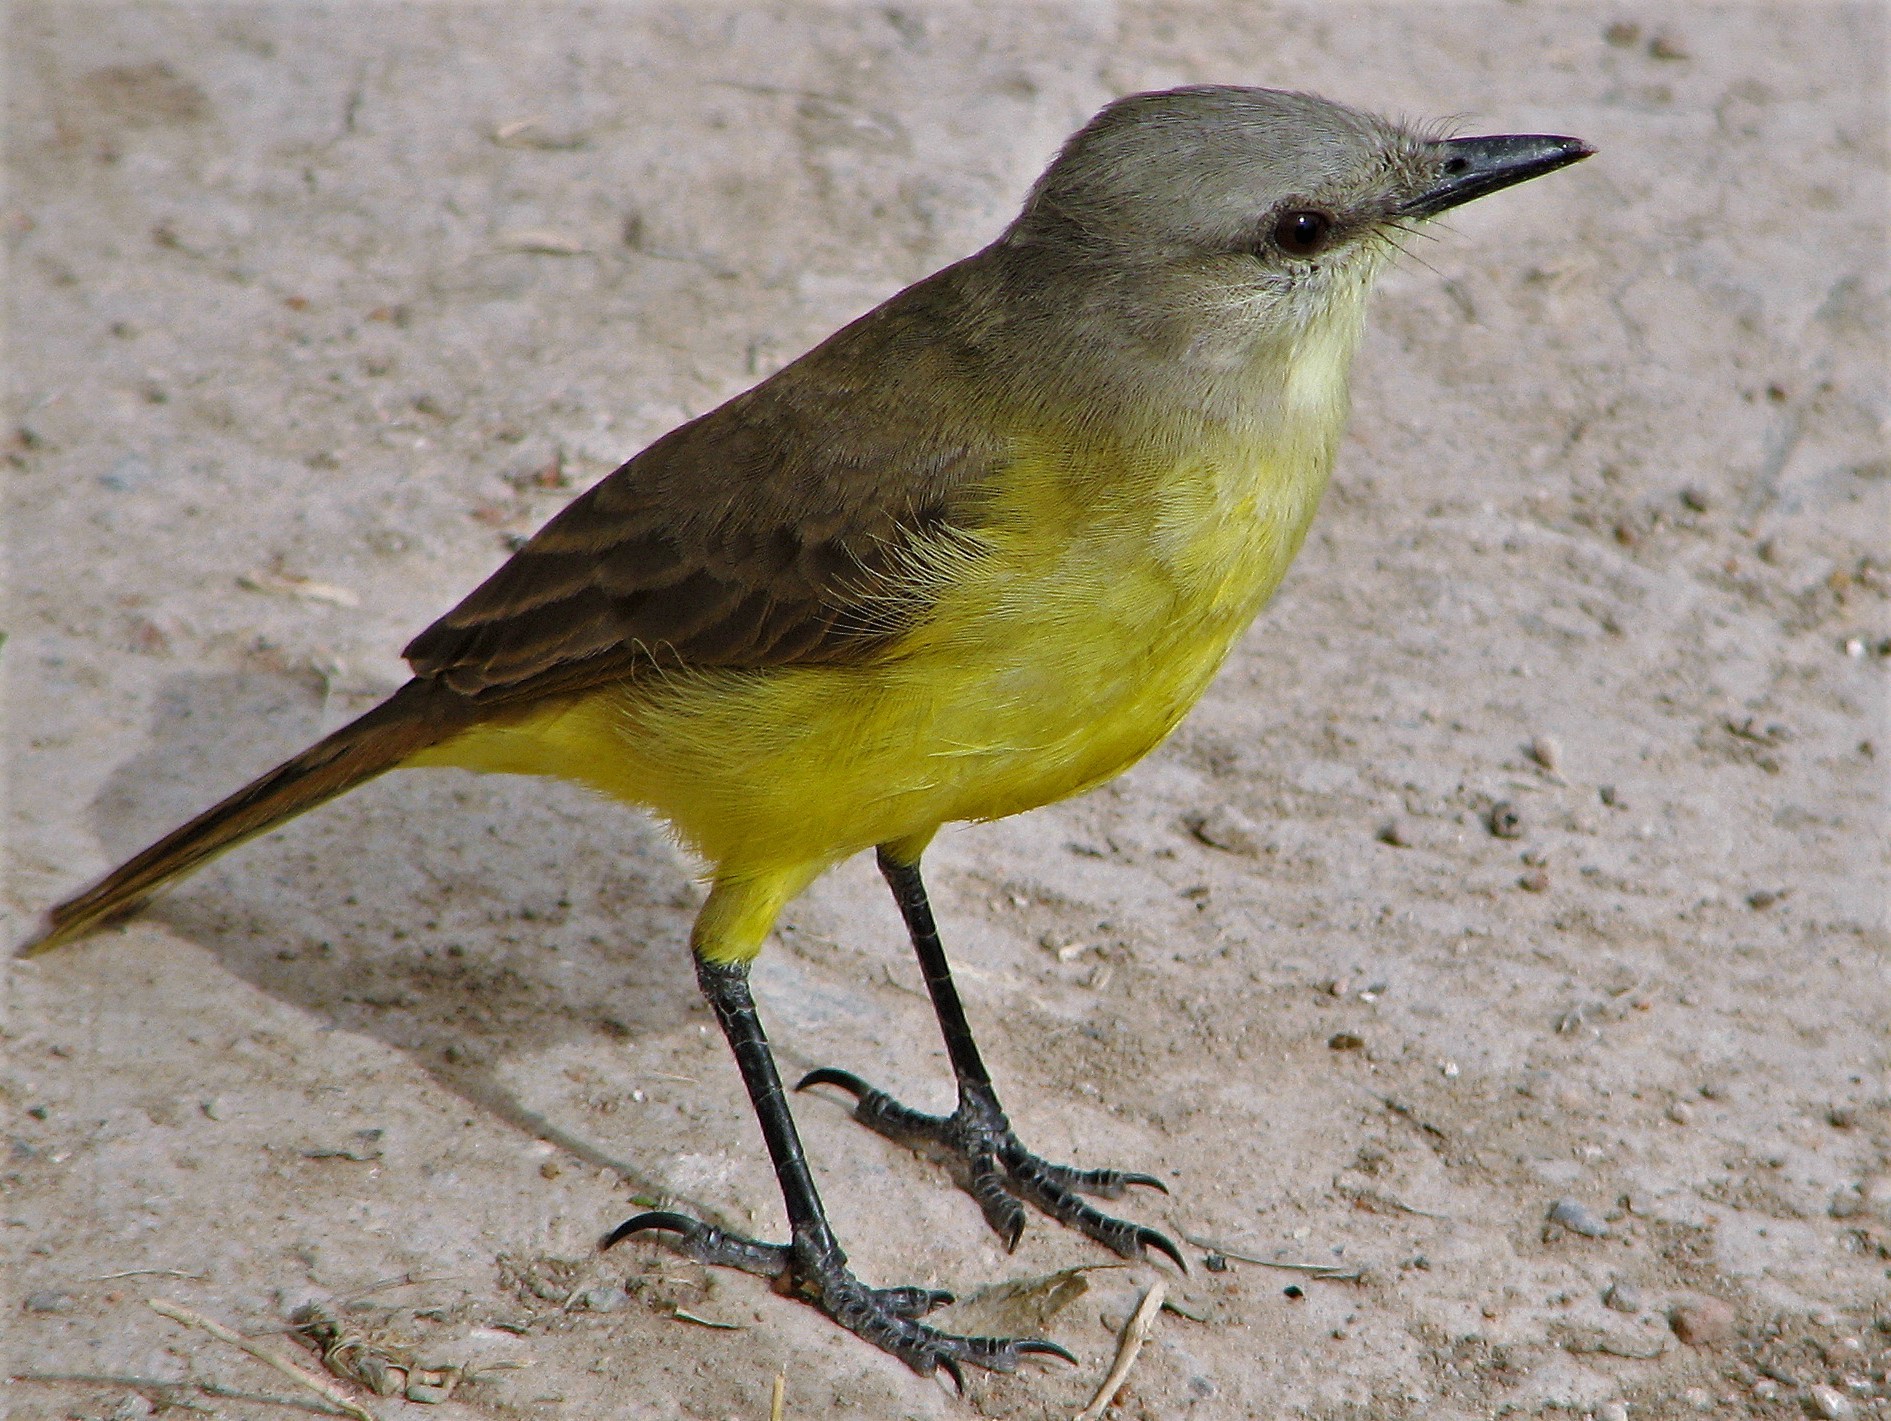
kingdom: Animalia
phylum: Chordata
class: Aves
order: Passeriformes
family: Tyrannidae
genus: Machetornis
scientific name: Machetornis rixosa
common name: Cattle tyrant
